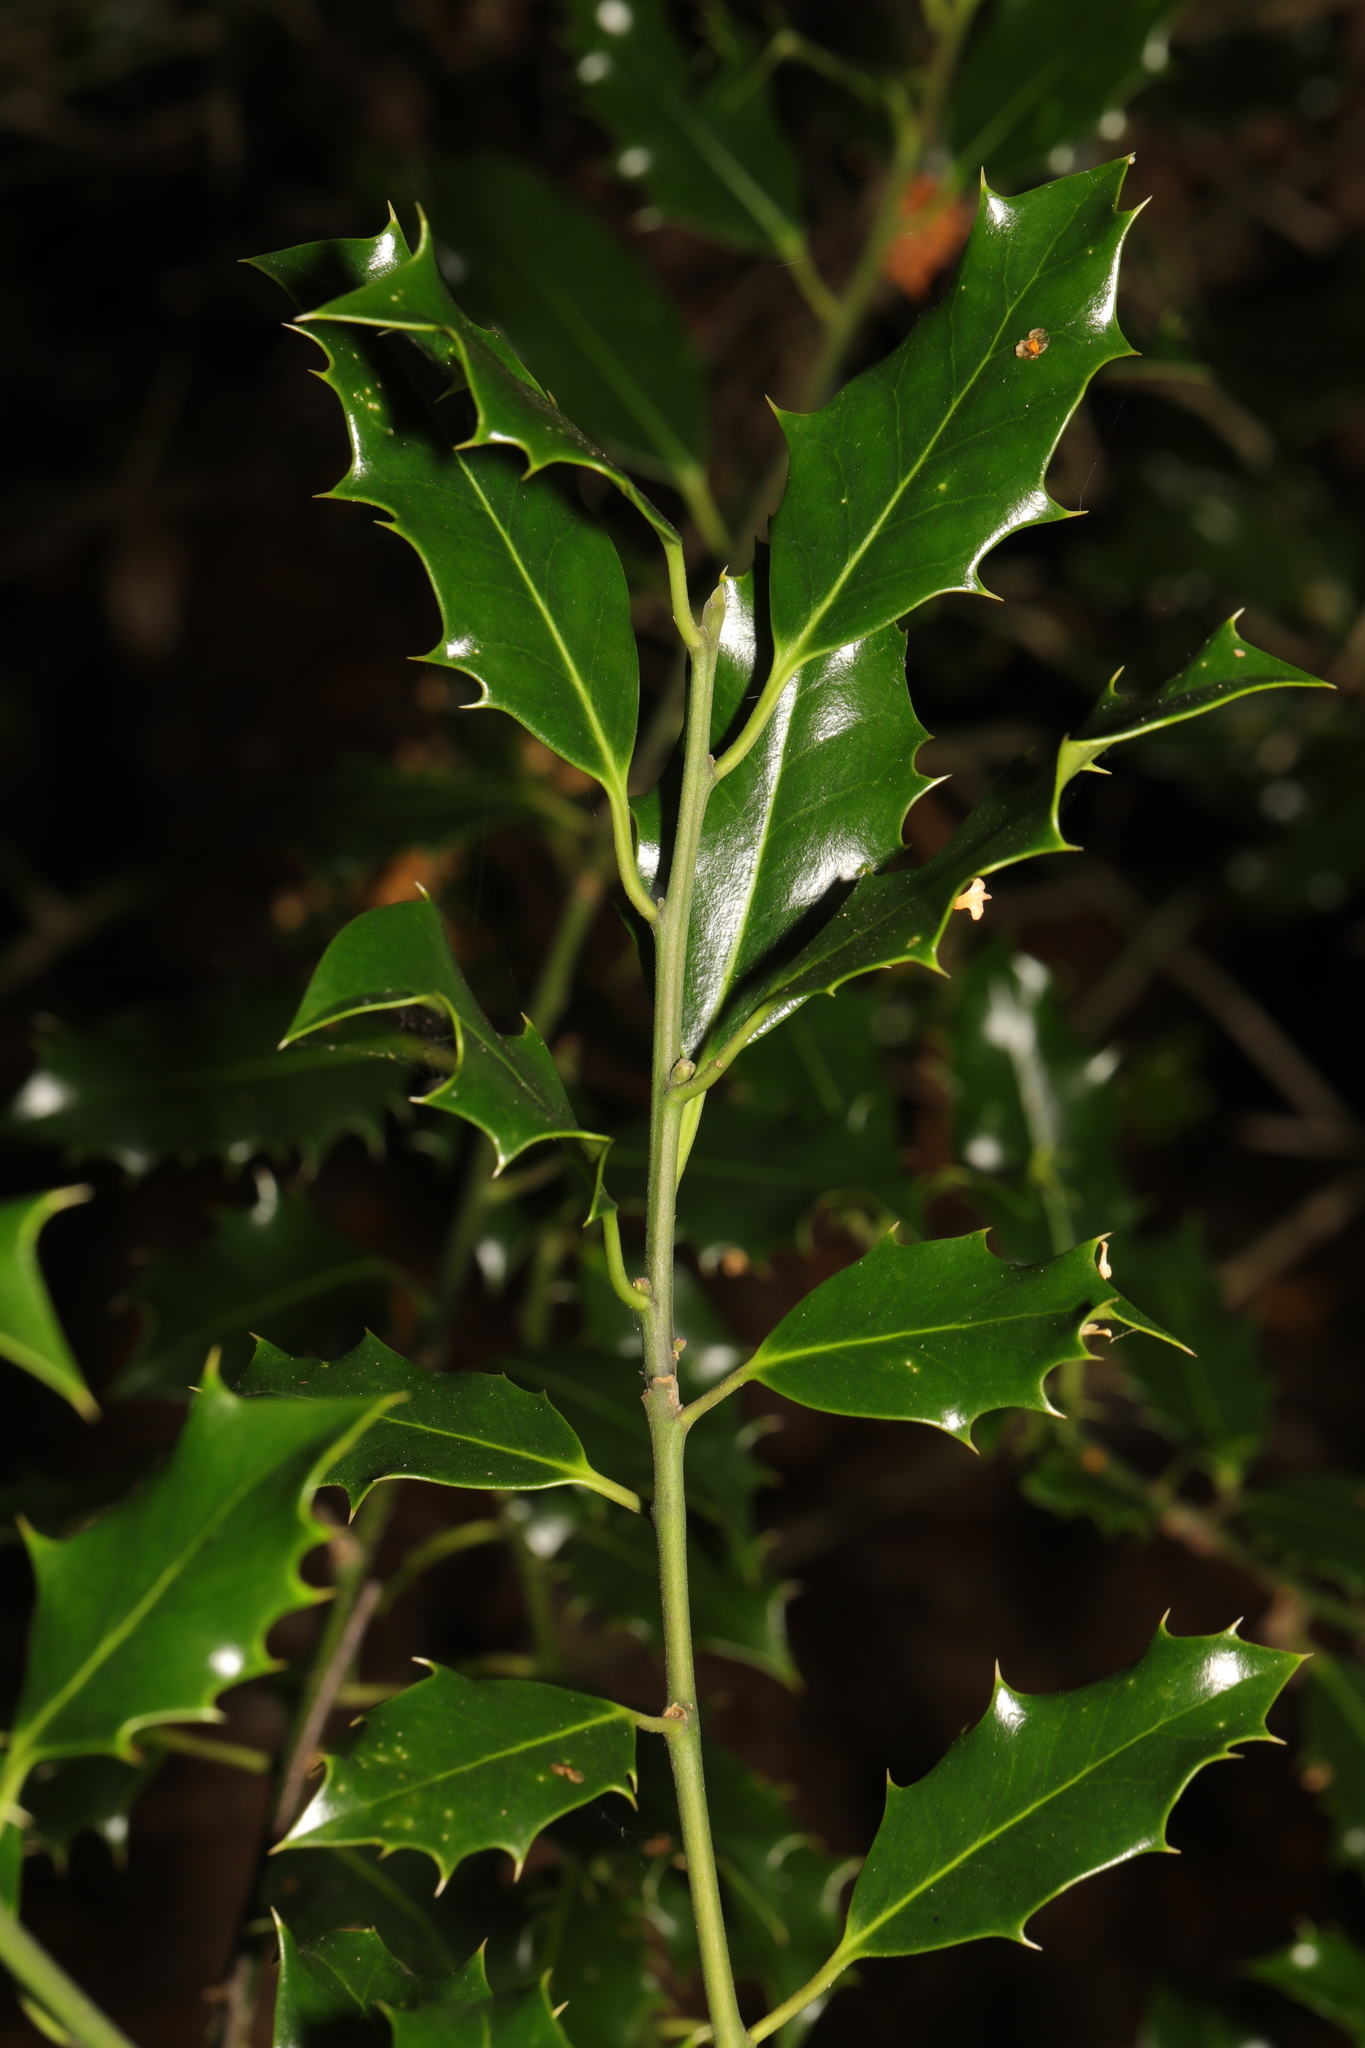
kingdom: Plantae
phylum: Tracheophyta
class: Magnoliopsida
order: Aquifoliales
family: Aquifoliaceae
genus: Ilex
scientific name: Ilex aquifolium
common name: English holly
